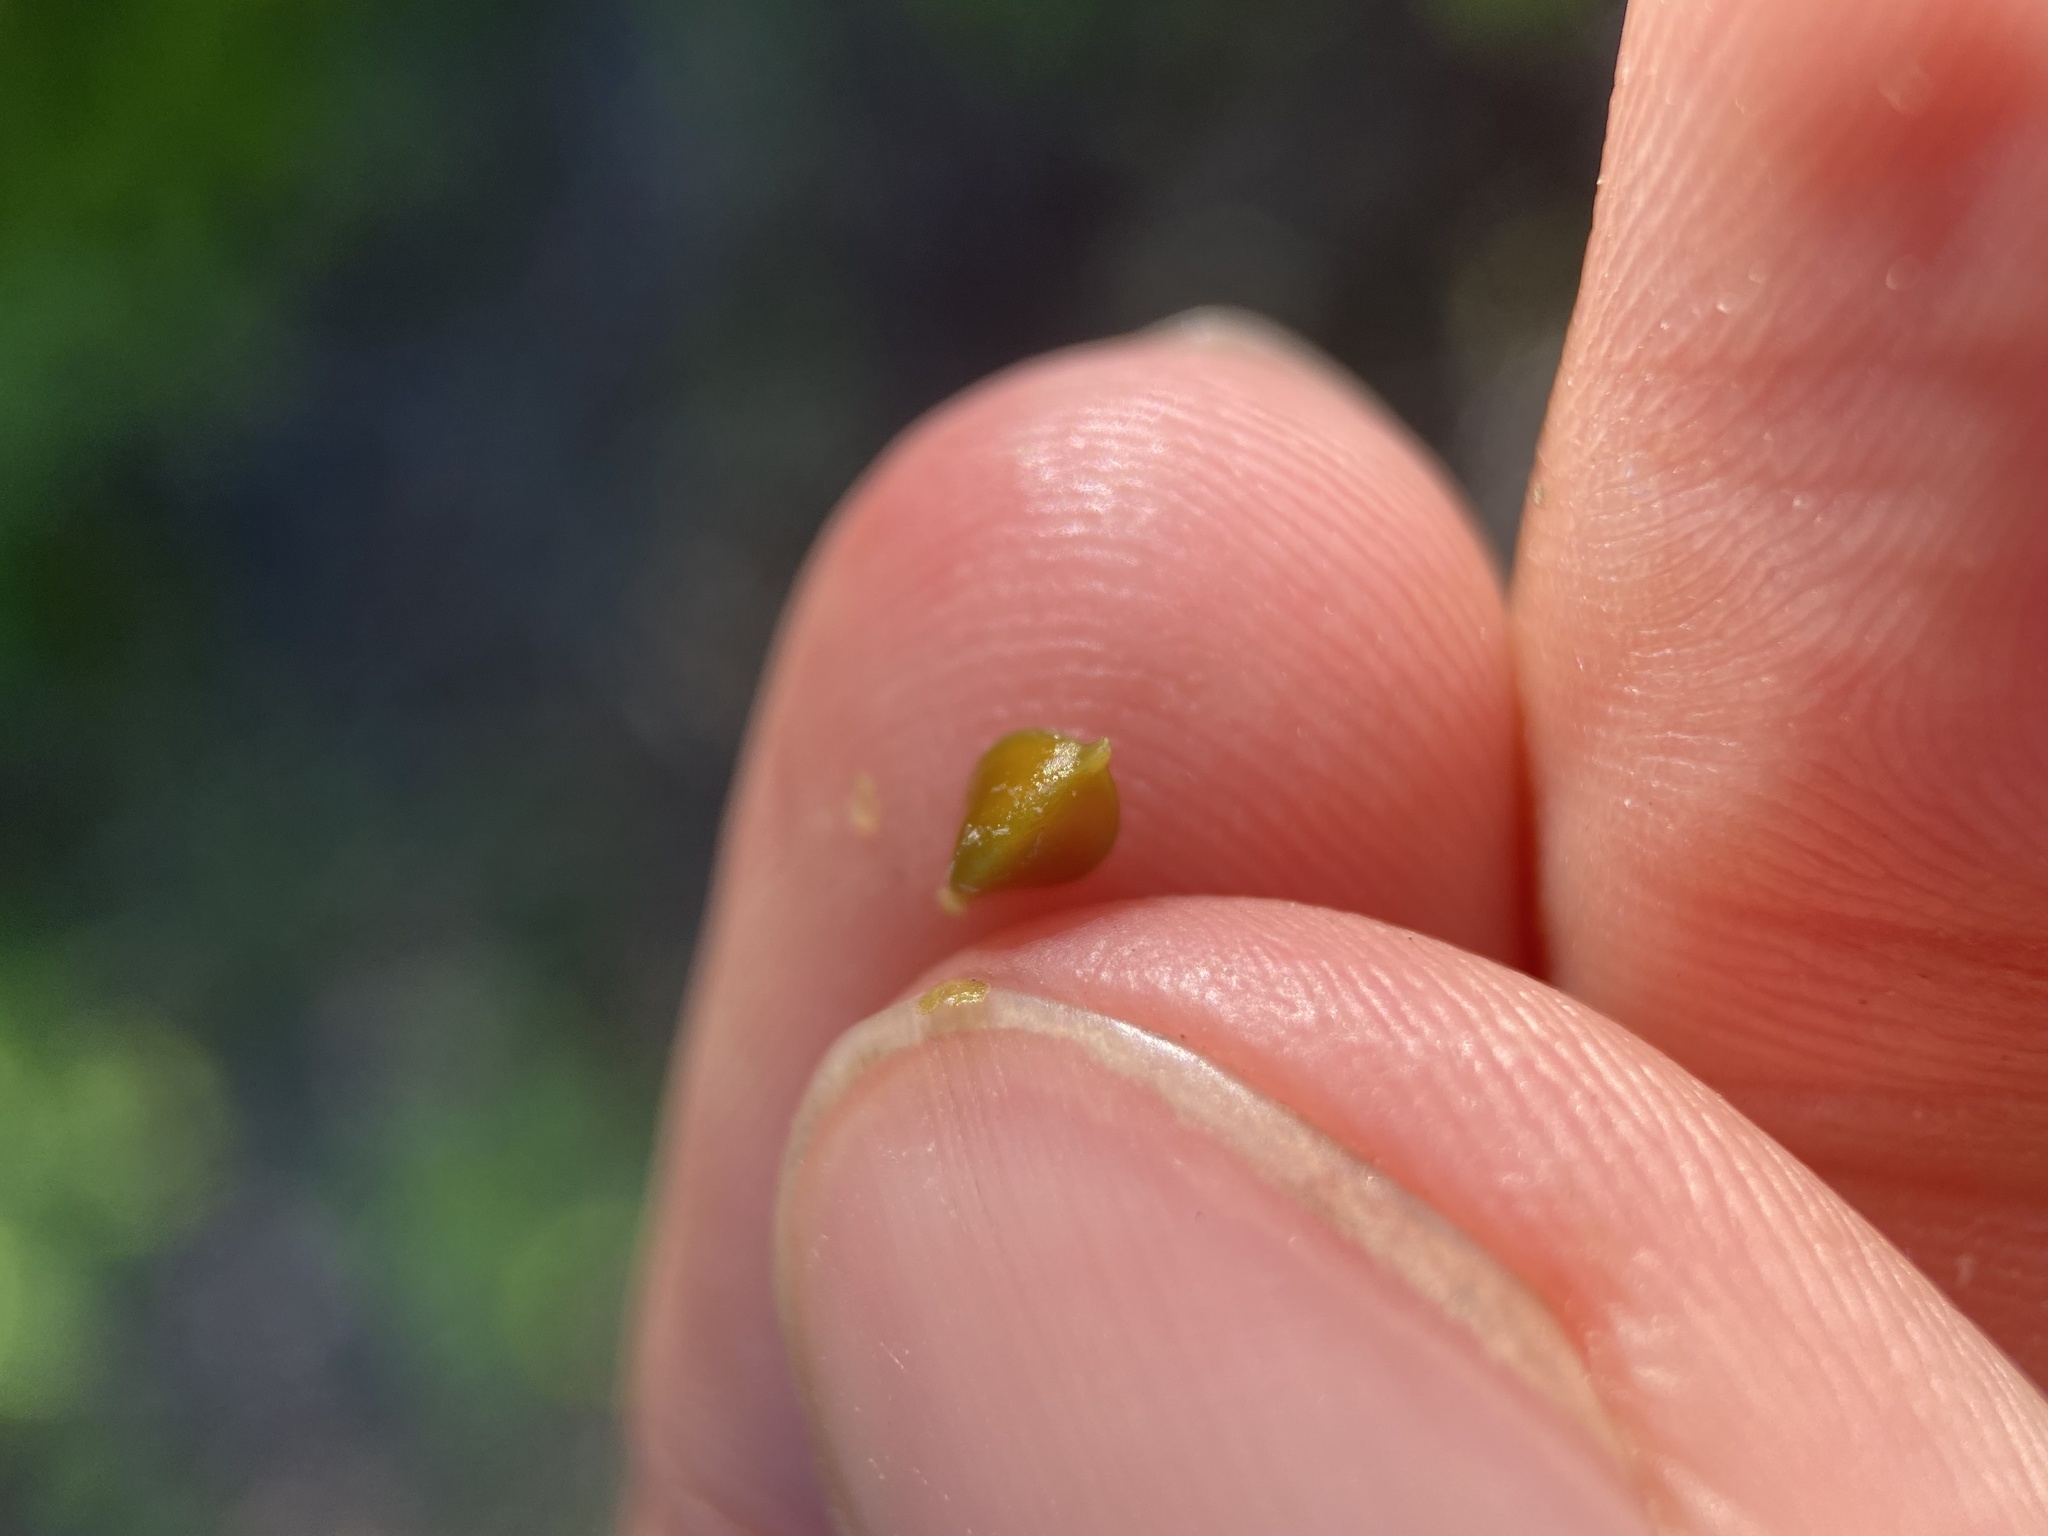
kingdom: Plantae
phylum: Tracheophyta
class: Liliopsida
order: Poales
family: Cyperaceae
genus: Carex
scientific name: Carex intumescens
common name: Greater bladder sedge
